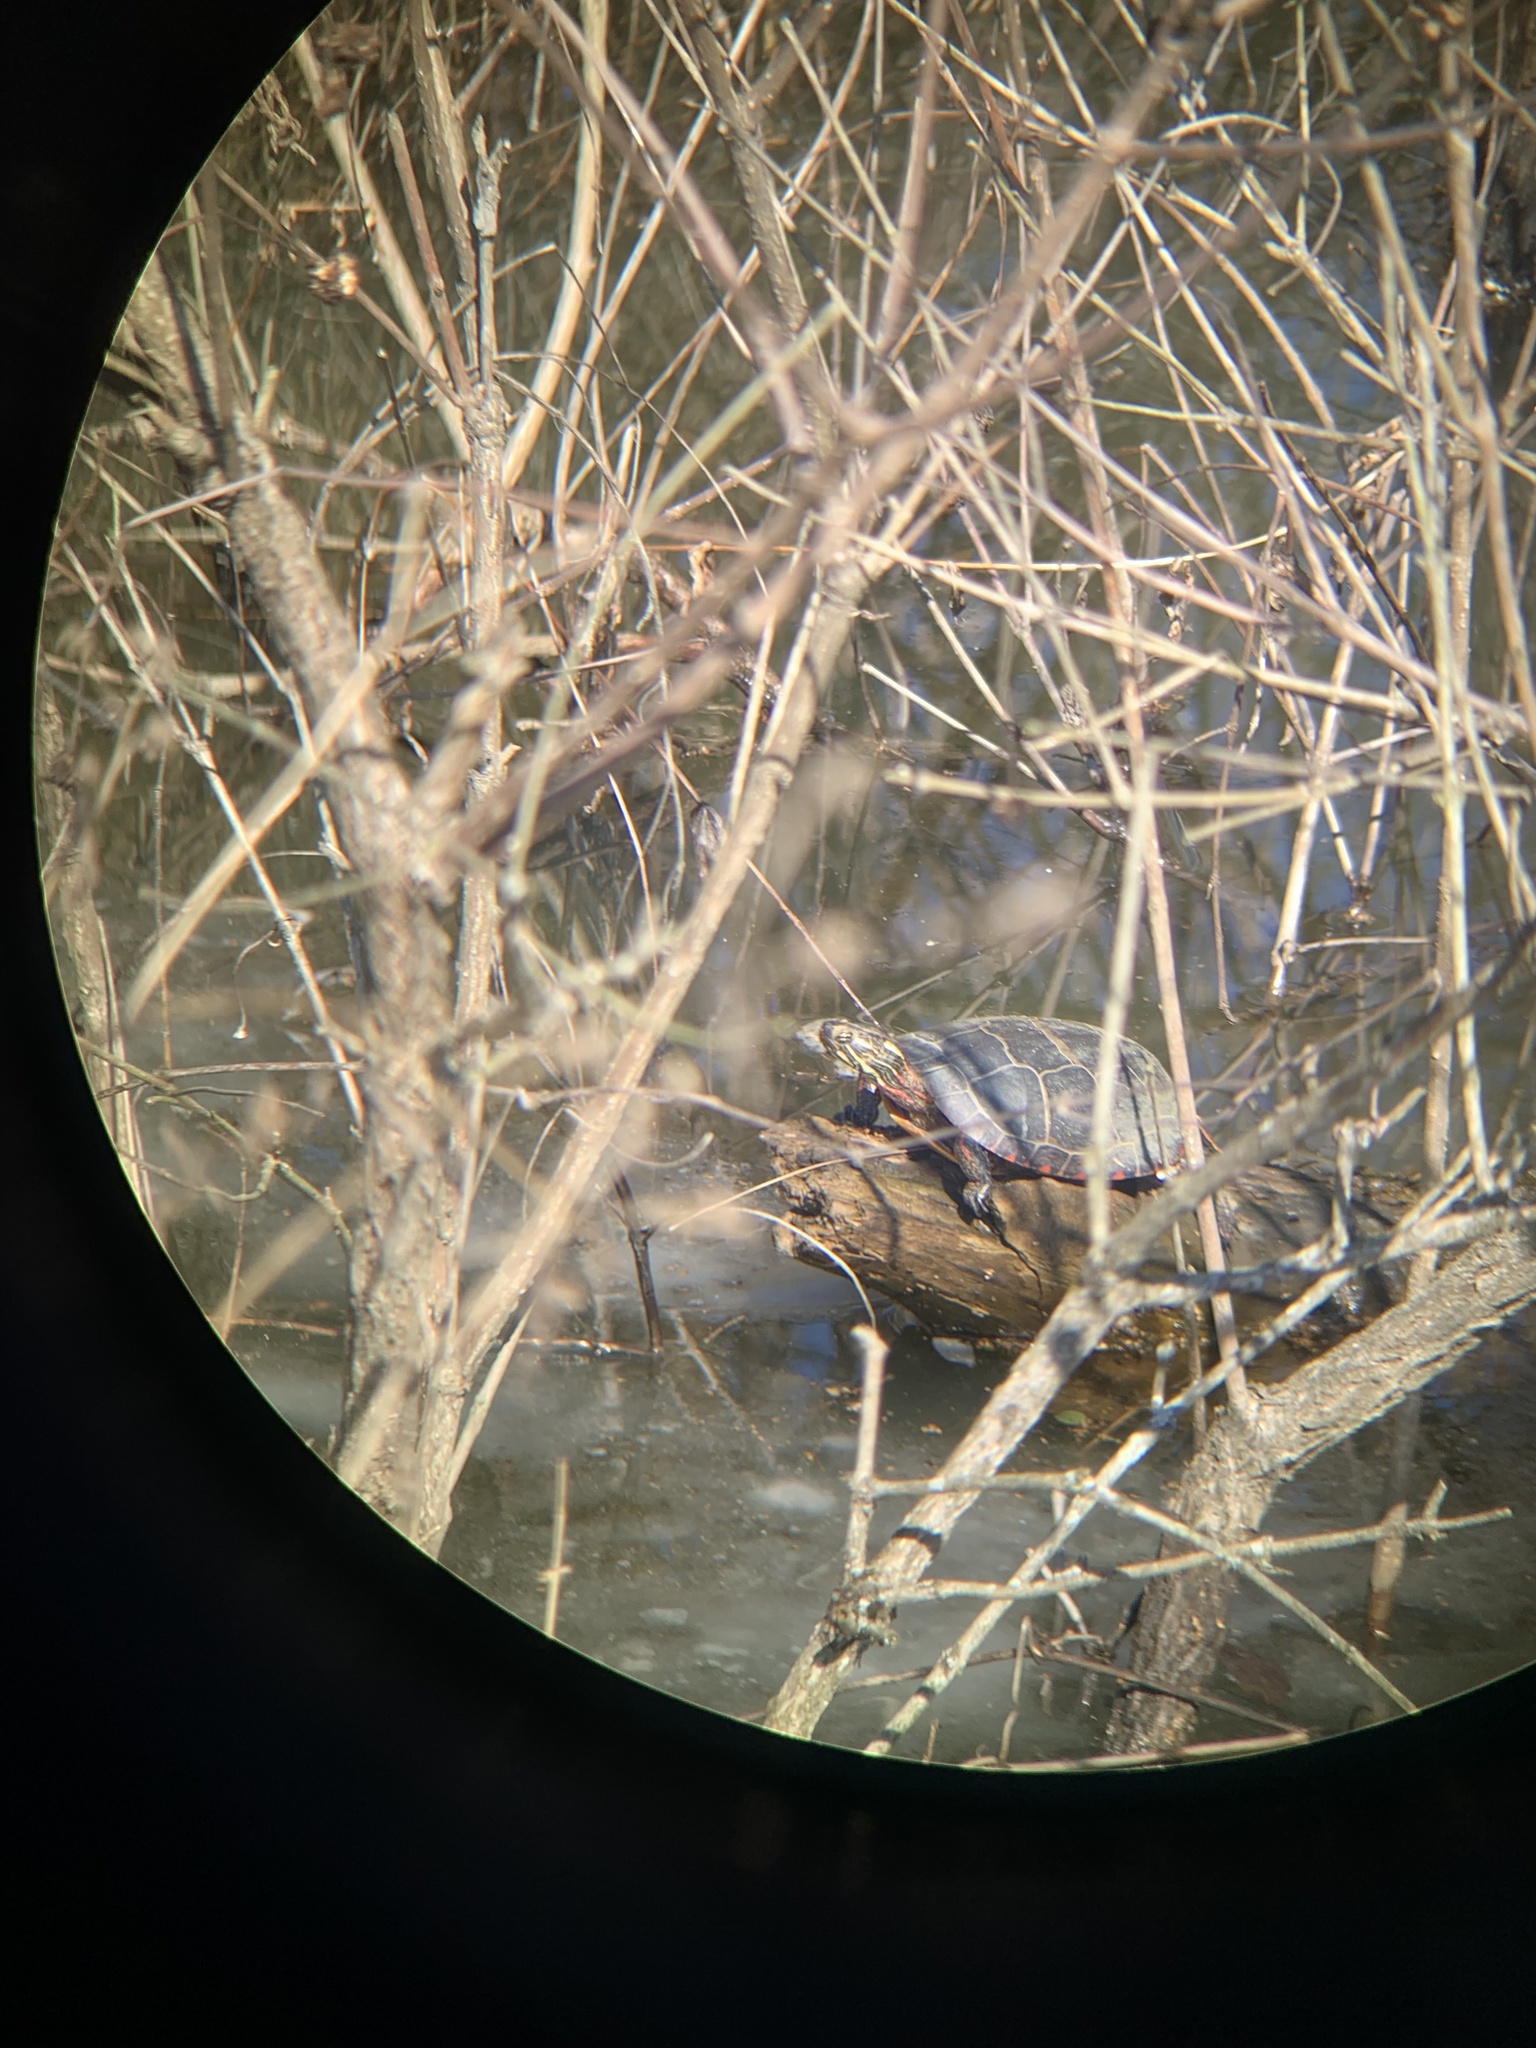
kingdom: Animalia
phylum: Chordata
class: Testudines
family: Emydidae
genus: Chrysemys
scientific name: Chrysemys picta
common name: Painted turtle
